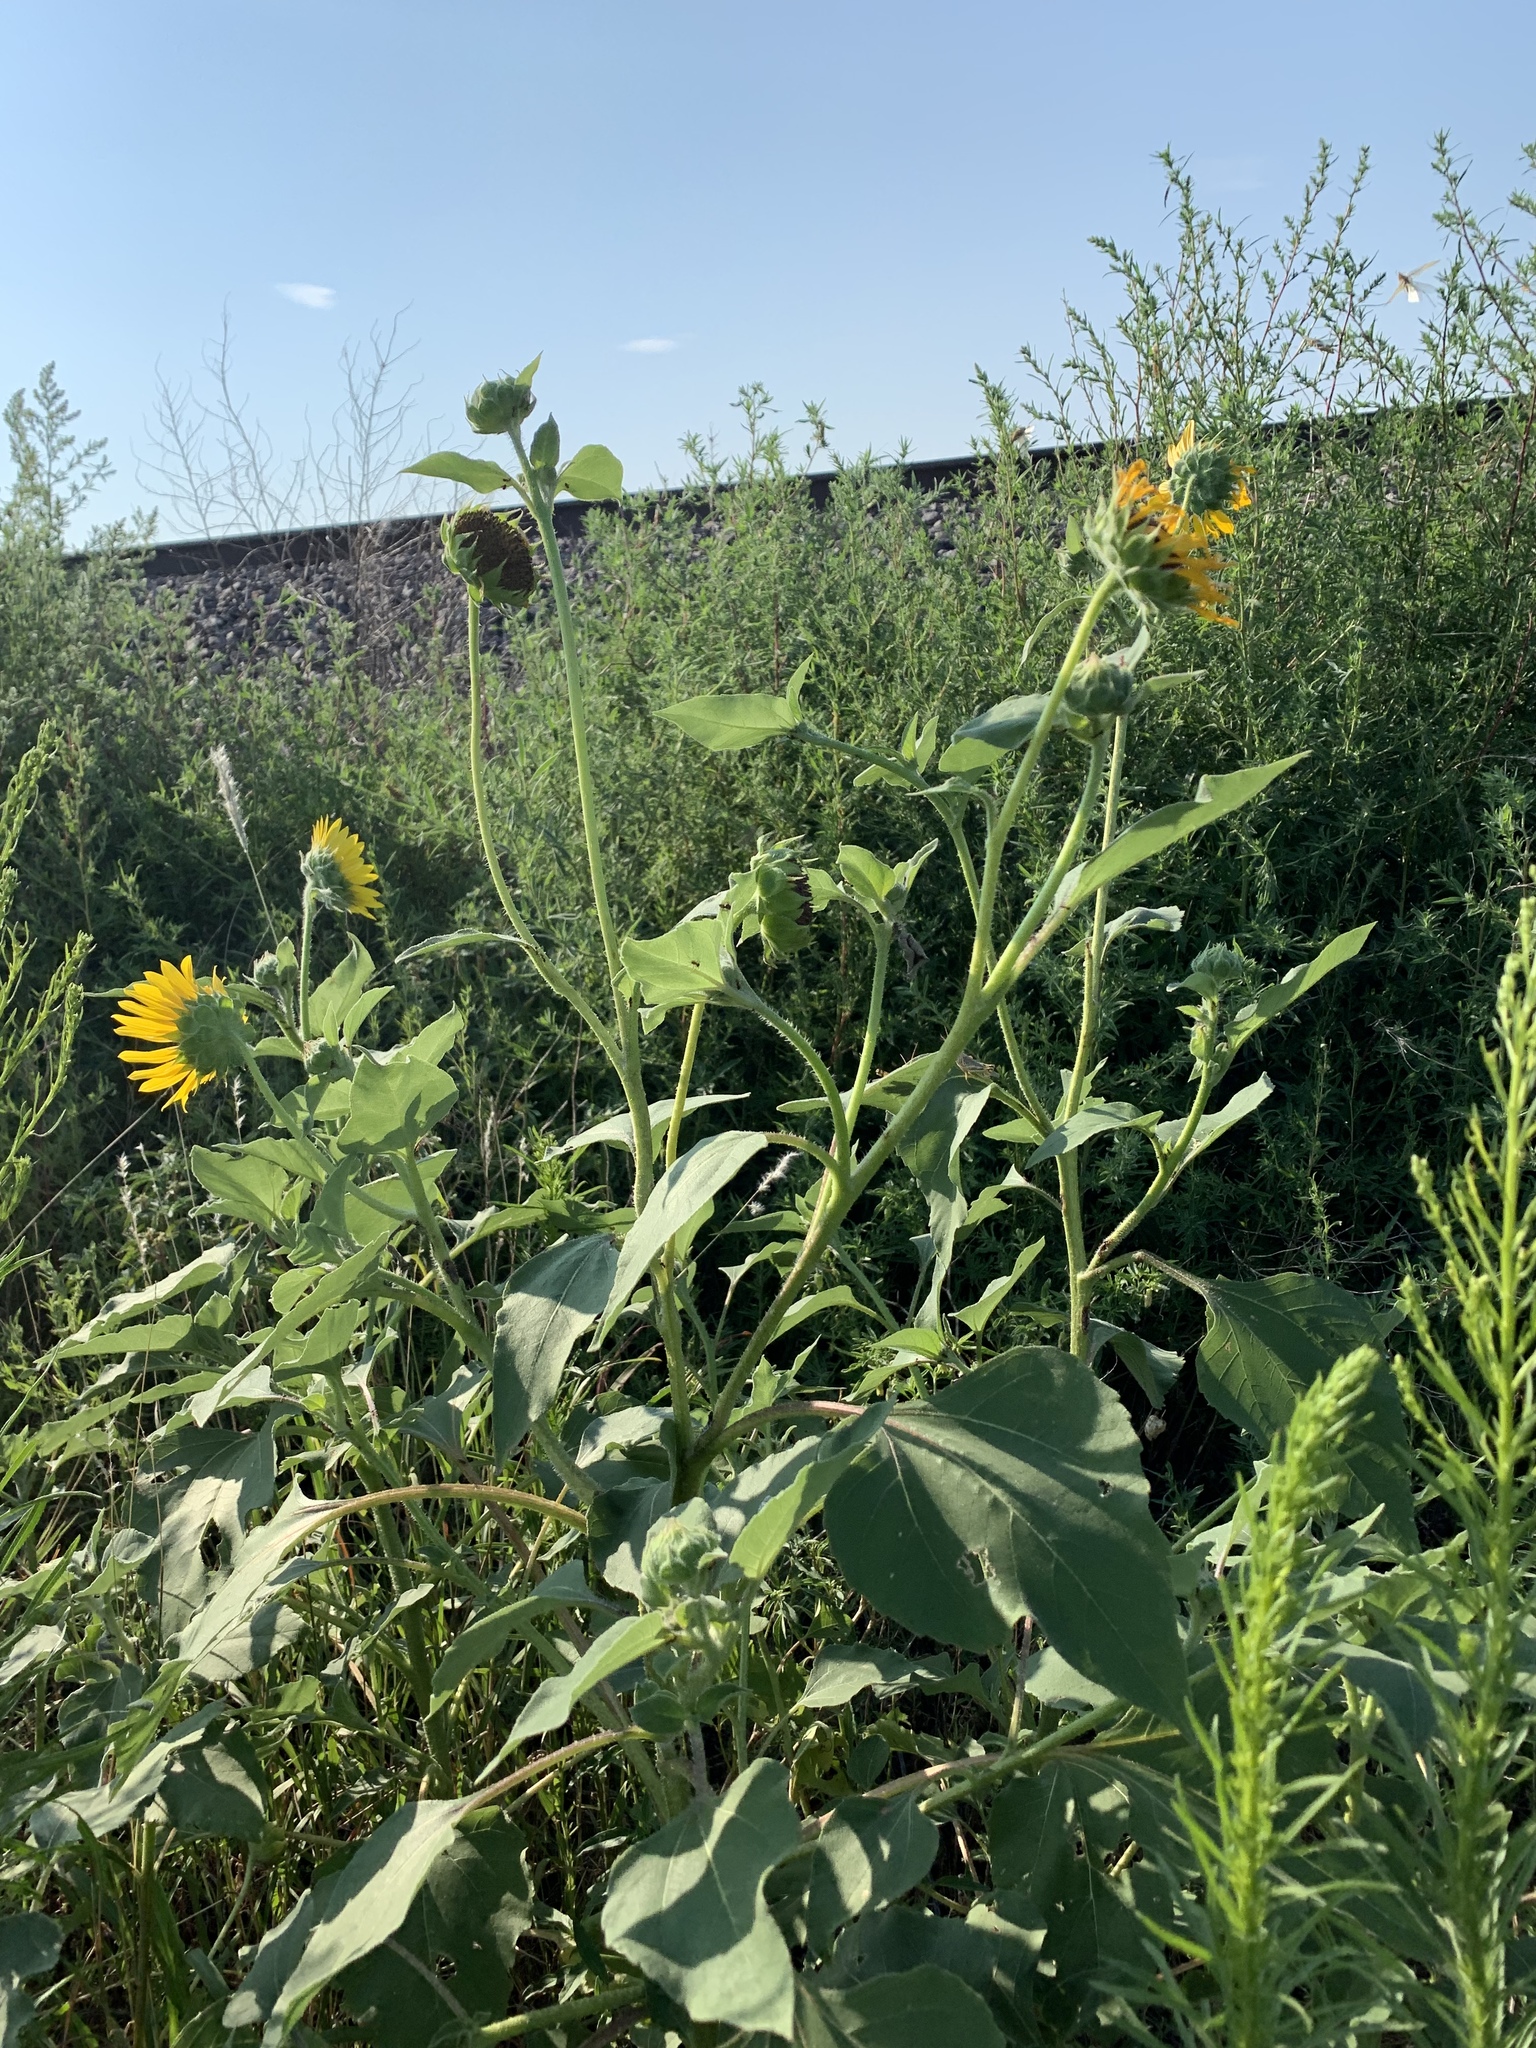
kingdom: Plantae
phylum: Tracheophyta
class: Magnoliopsida
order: Asterales
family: Asteraceae
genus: Helianthus
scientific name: Helianthus annuus
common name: Sunflower
